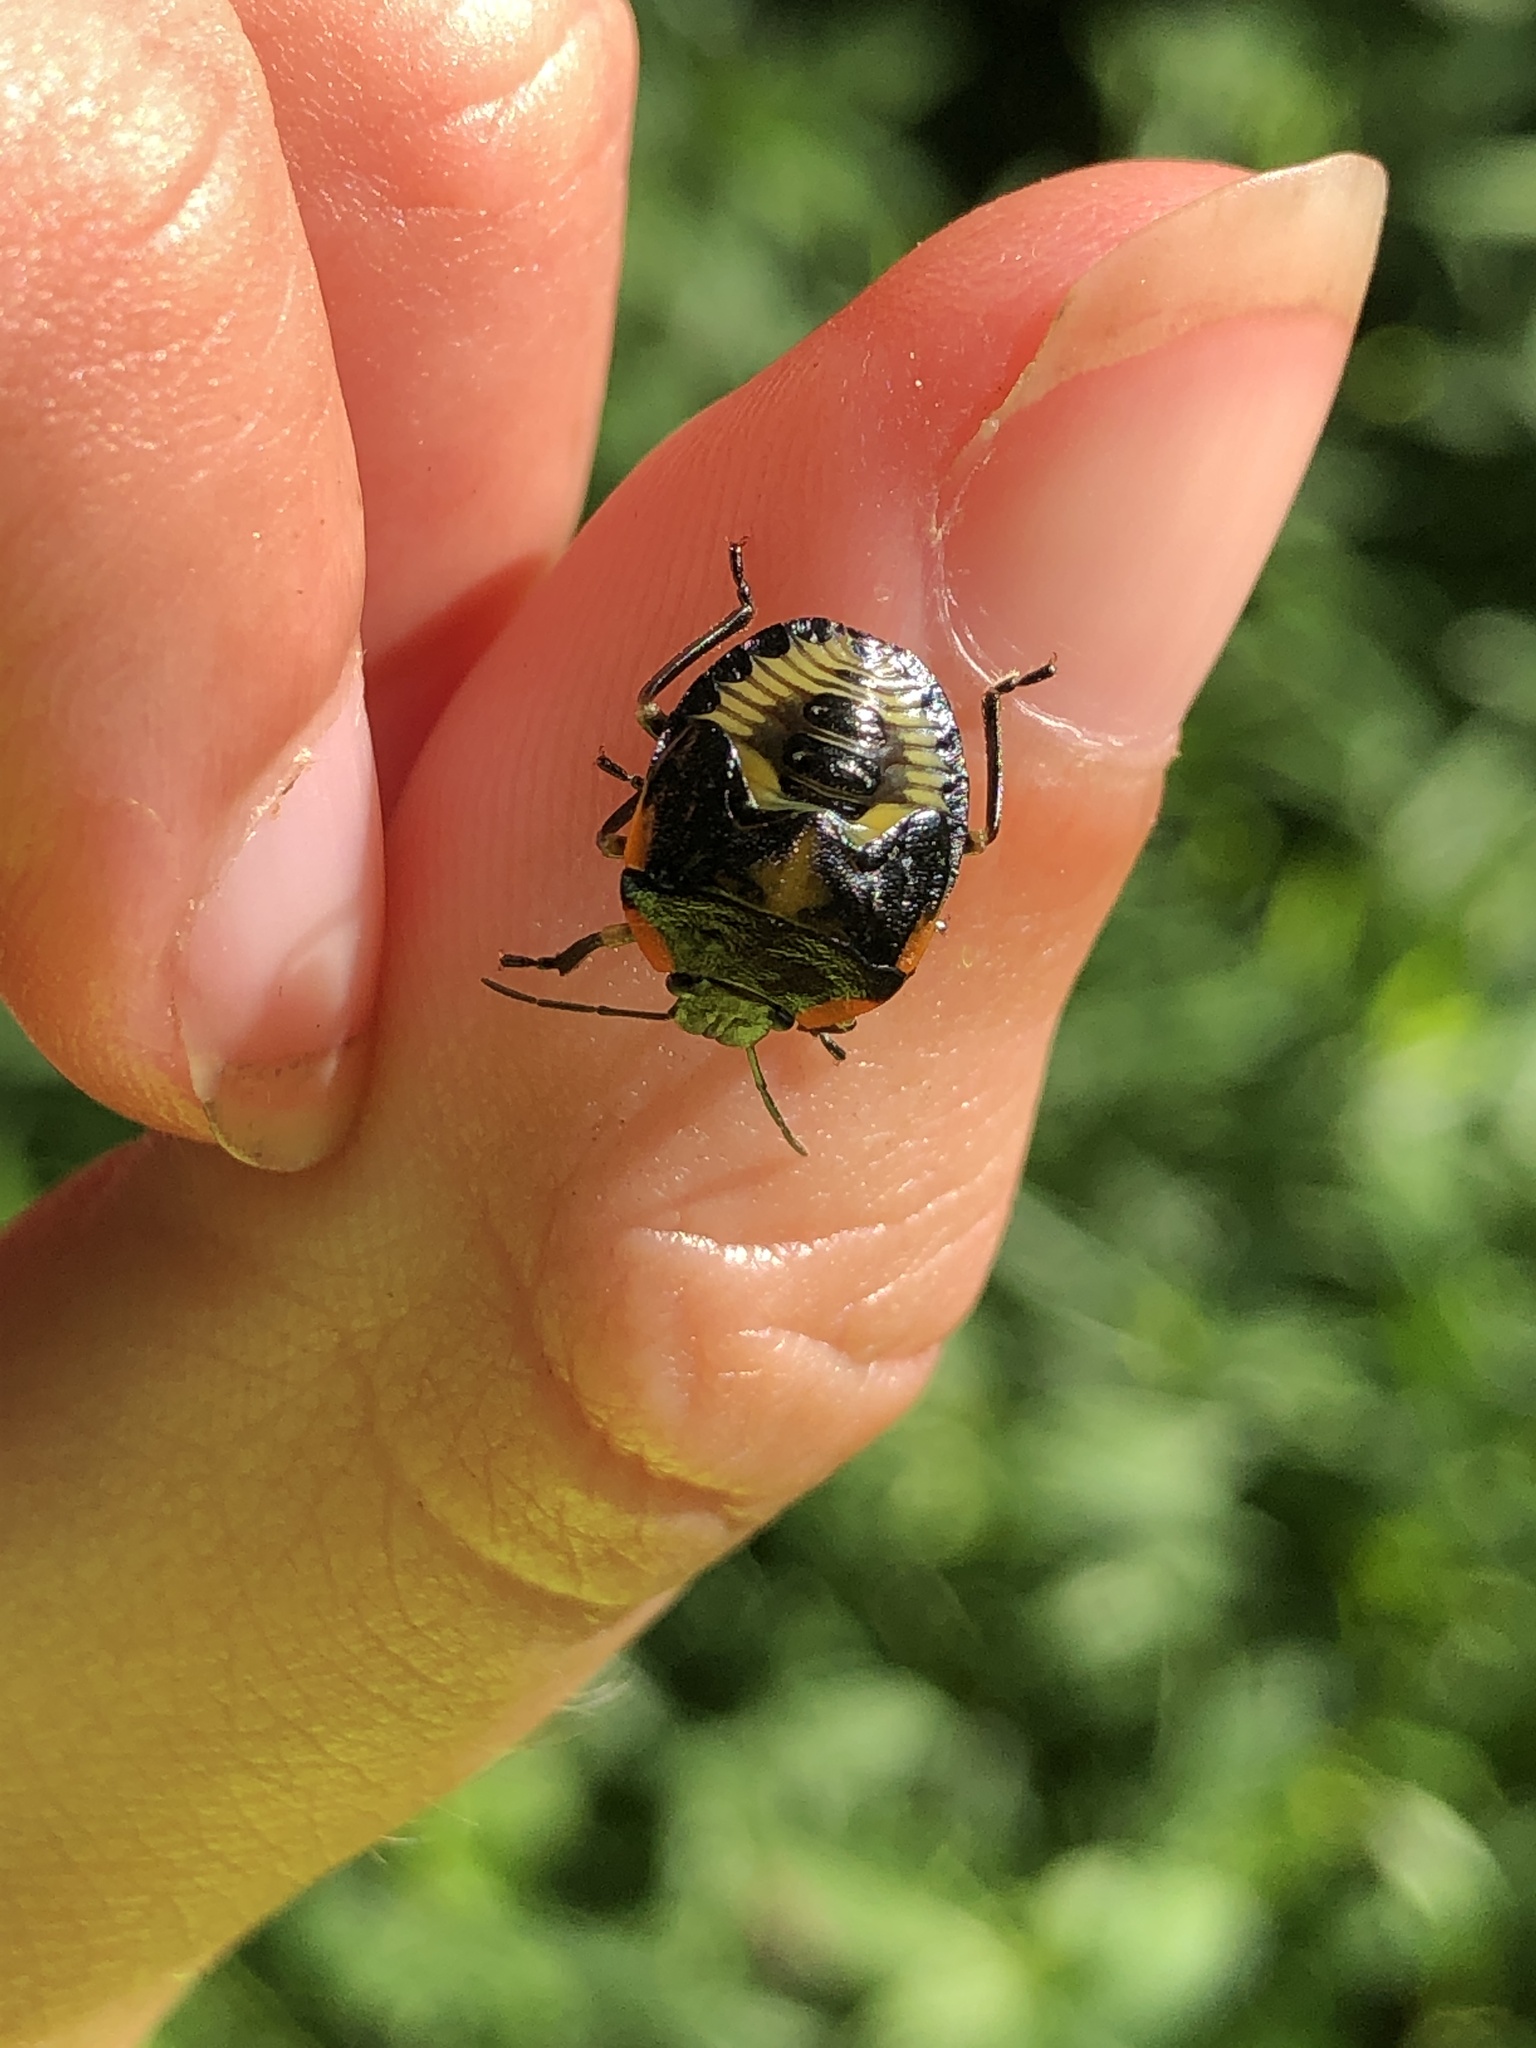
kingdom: Animalia
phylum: Arthropoda
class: Insecta
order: Hemiptera
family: Pentatomidae
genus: Chinavia
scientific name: Chinavia hilaris
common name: Green stink bug
